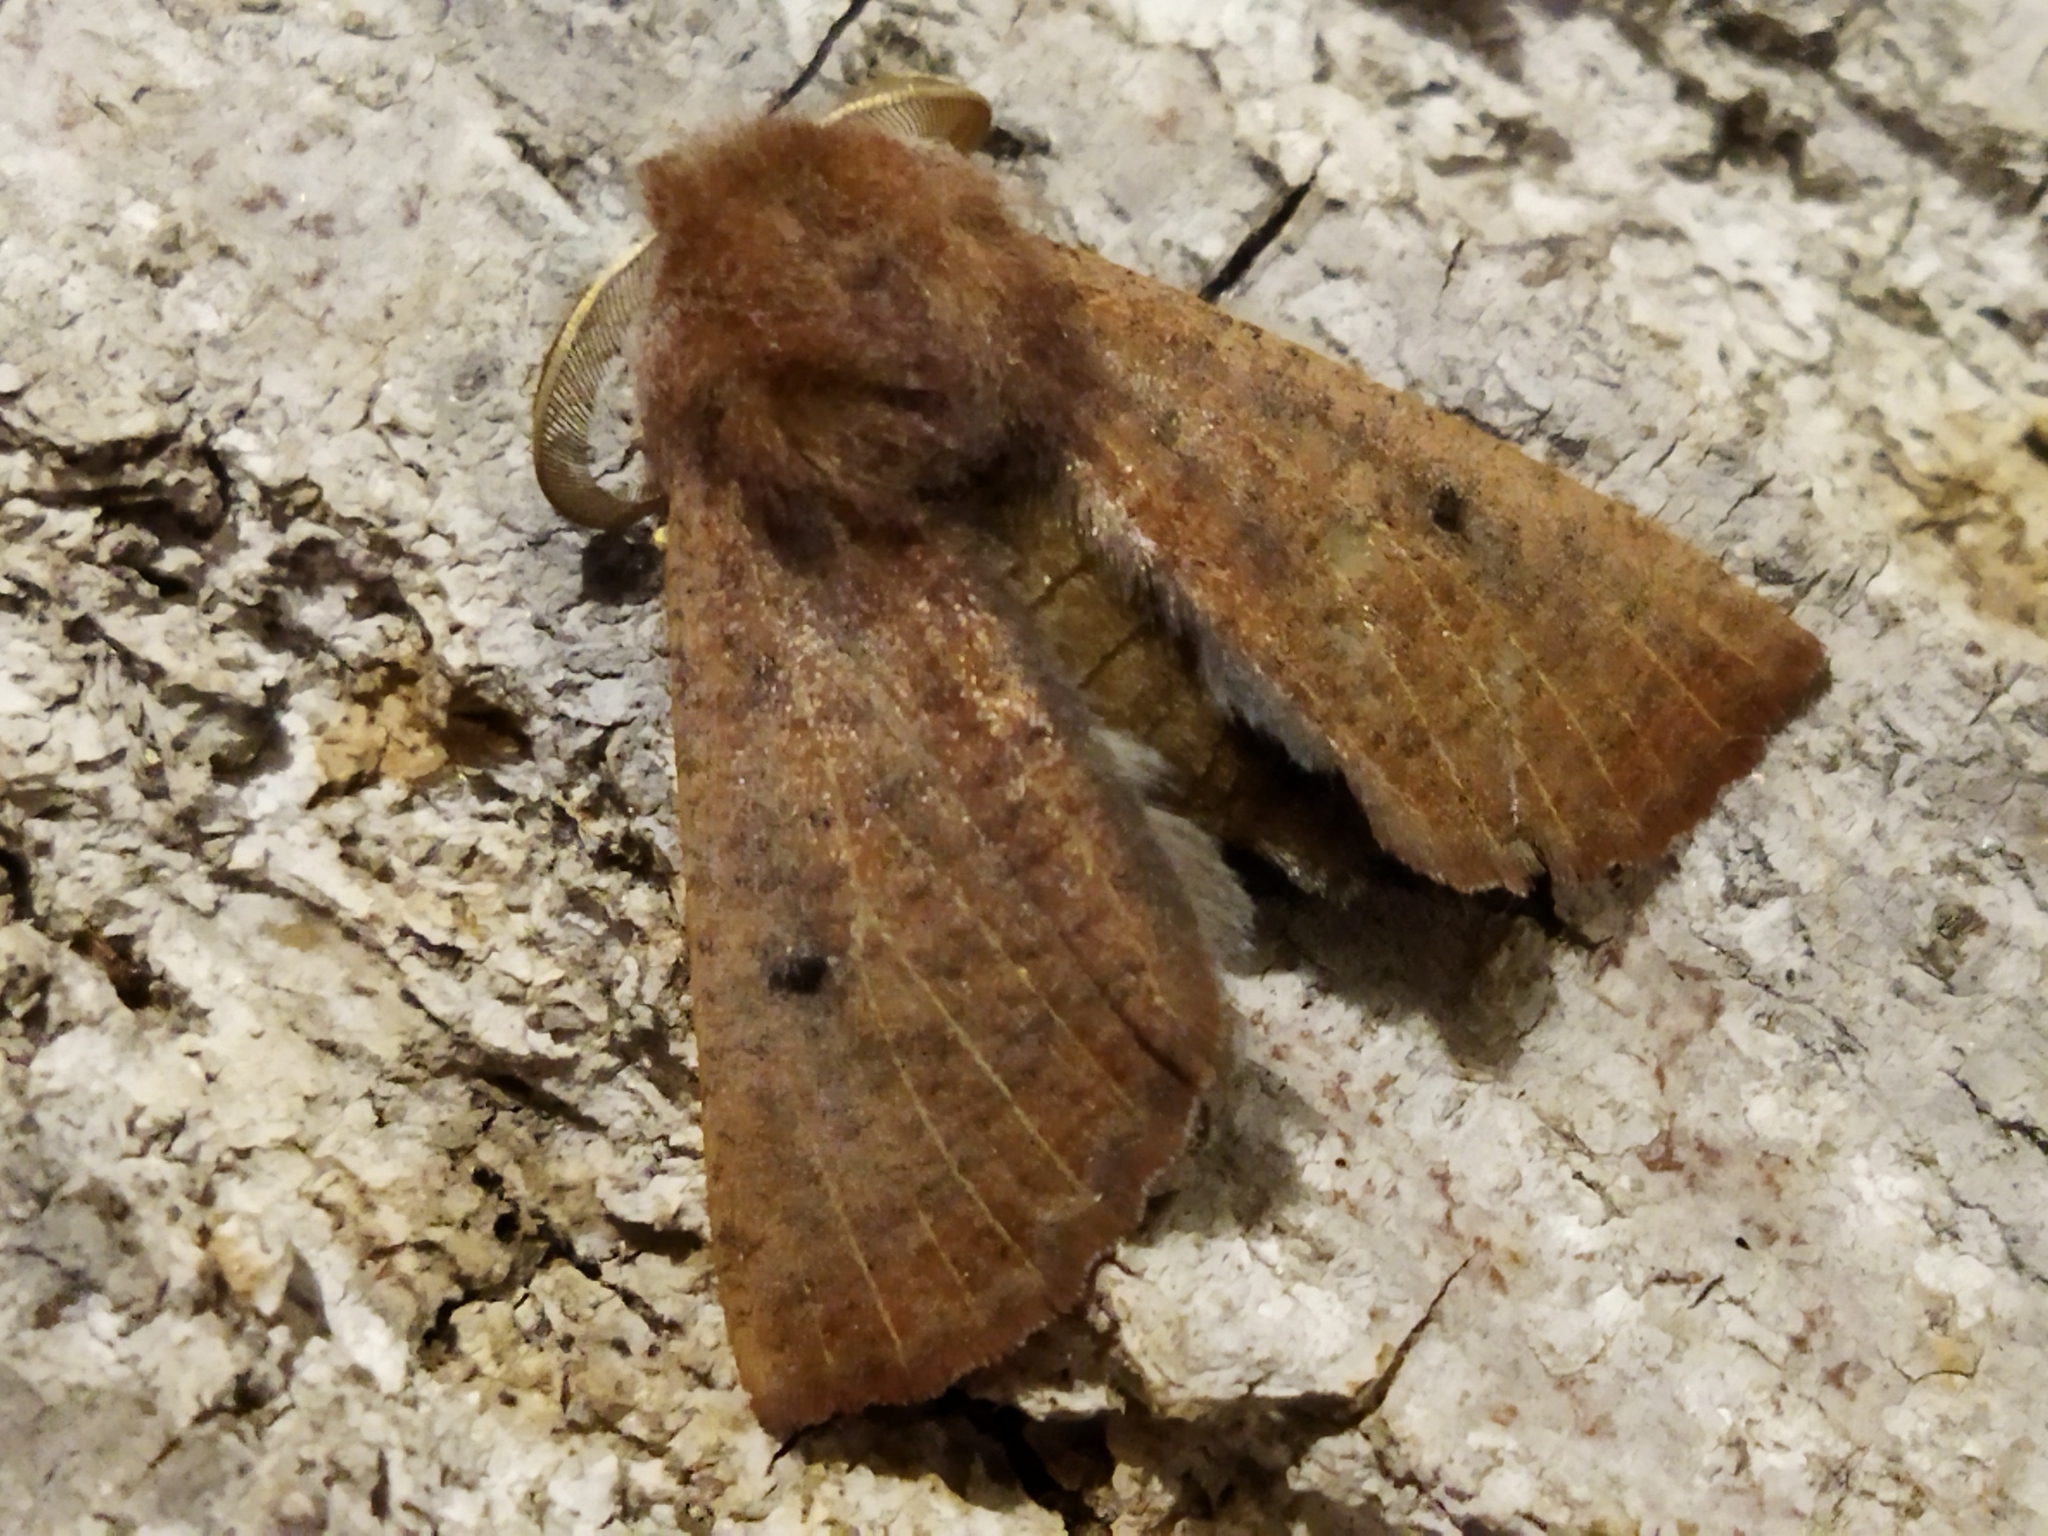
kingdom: Animalia
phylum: Arthropoda
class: Insecta
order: Lepidoptera
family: Geometridae
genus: Dasycorsa
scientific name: Dasycorsa modesta
